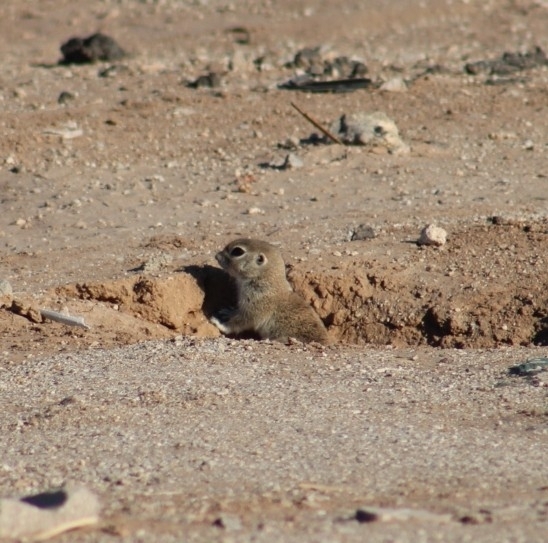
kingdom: Animalia
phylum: Chordata
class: Mammalia
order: Rodentia
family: Sciuridae
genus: Xerospermophilus
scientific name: Xerospermophilus tereticaudus
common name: Round-tailed ground squirrel
